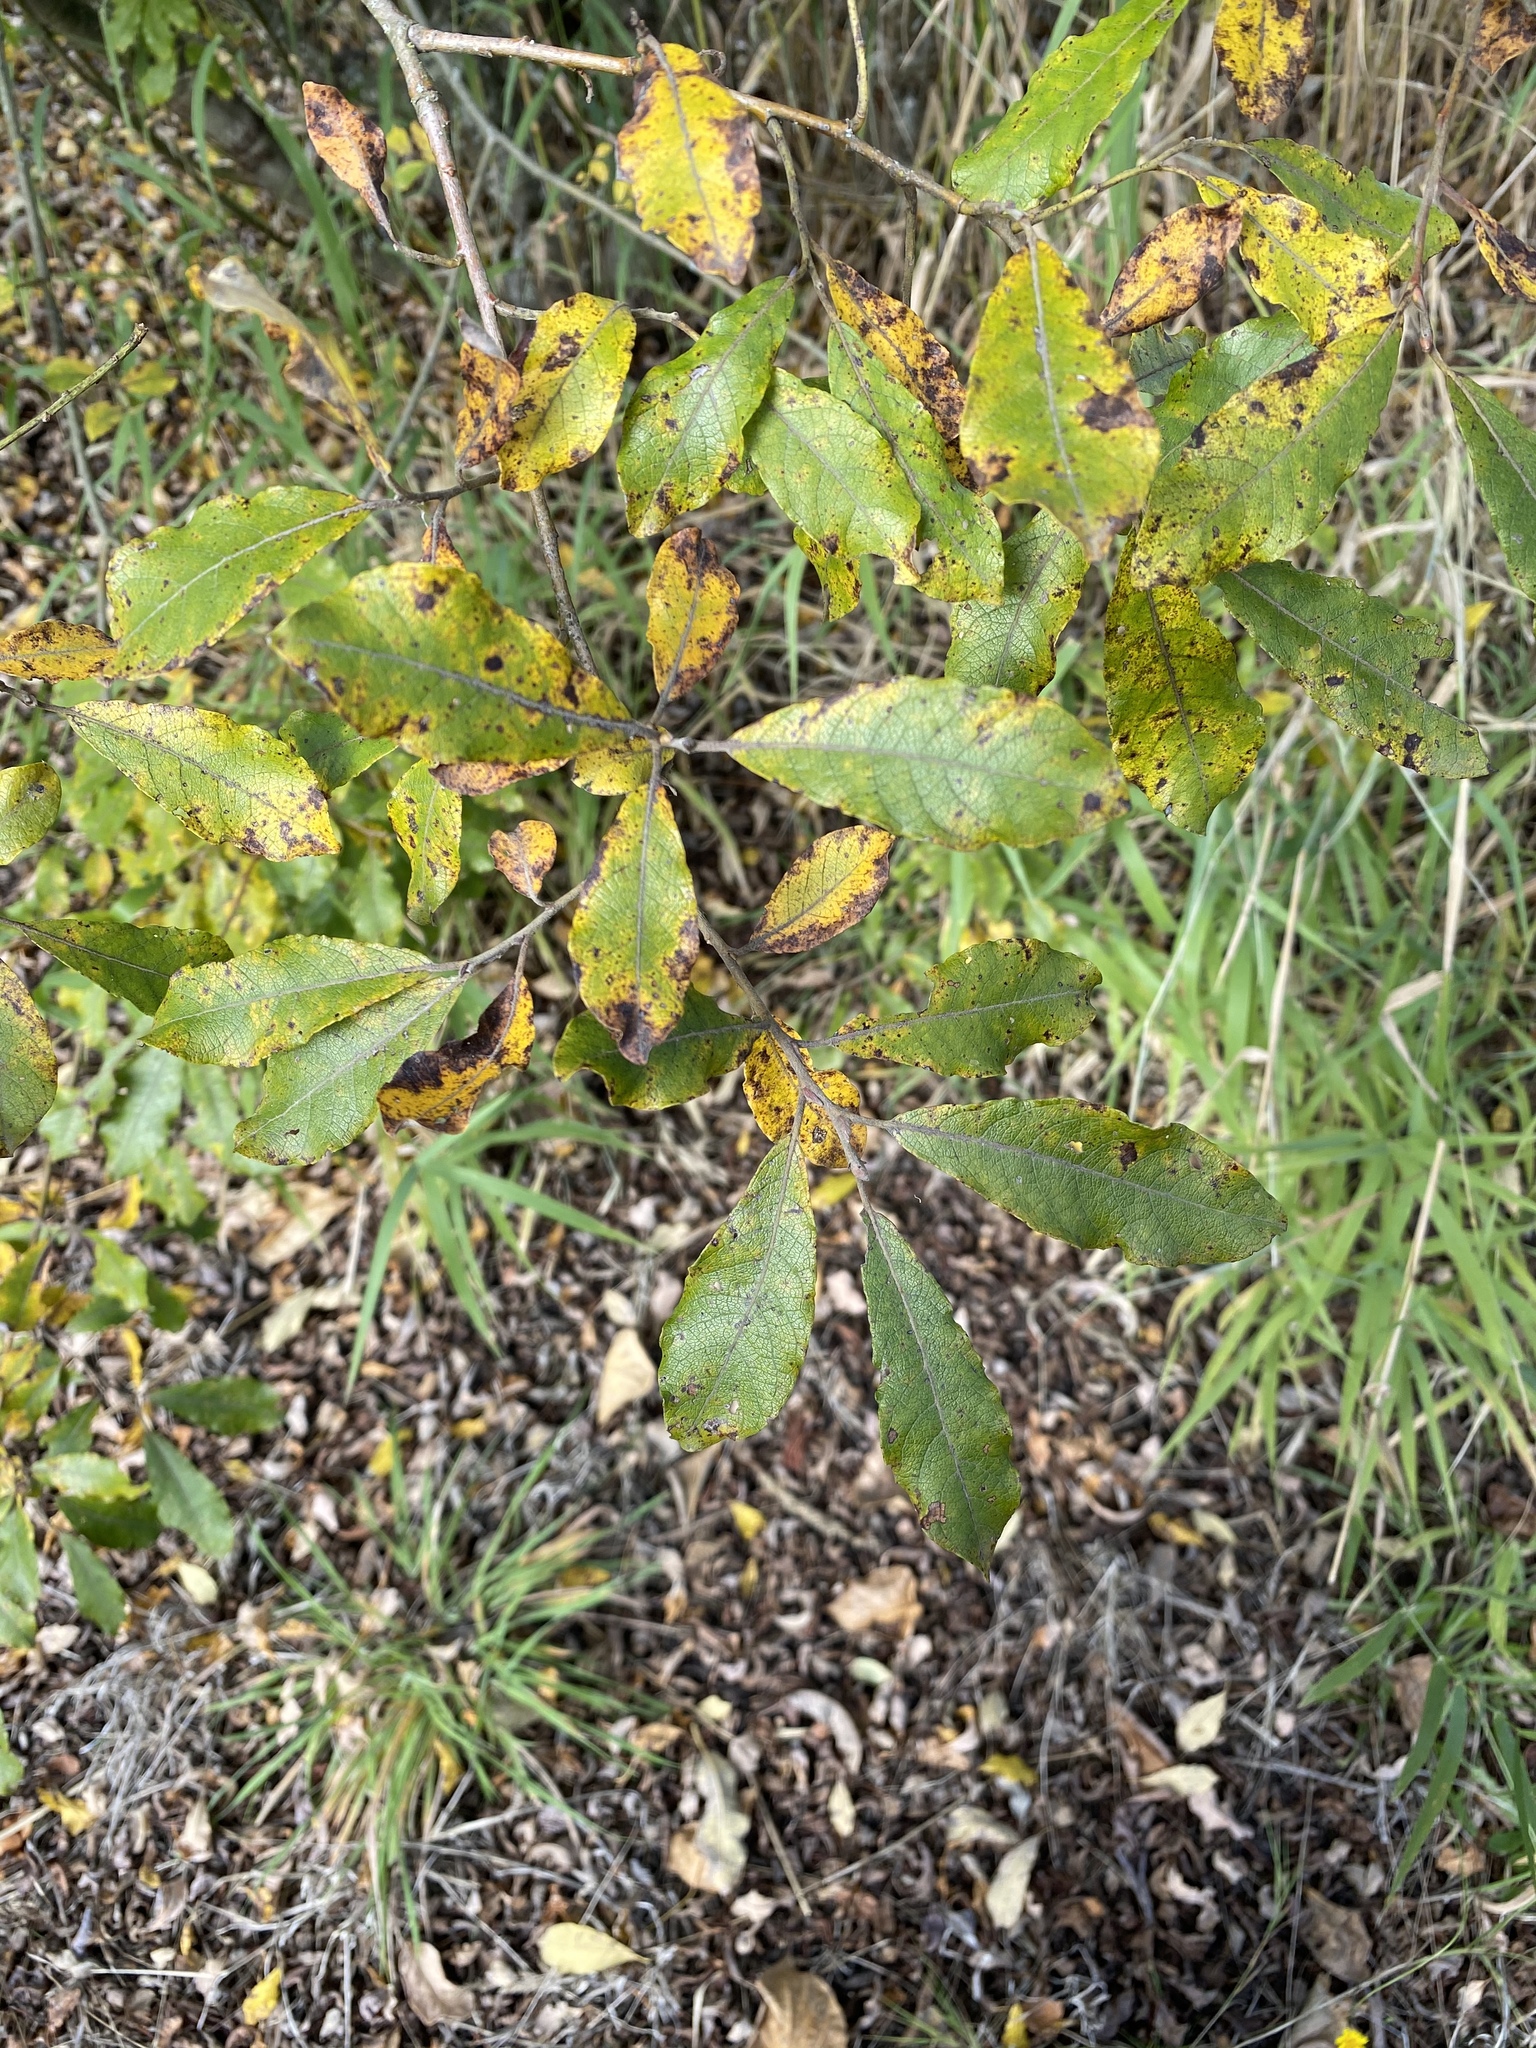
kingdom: Plantae
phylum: Tracheophyta
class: Magnoliopsida
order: Malpighiales
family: Salicaceae
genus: Salix
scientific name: Salix hookeriana
